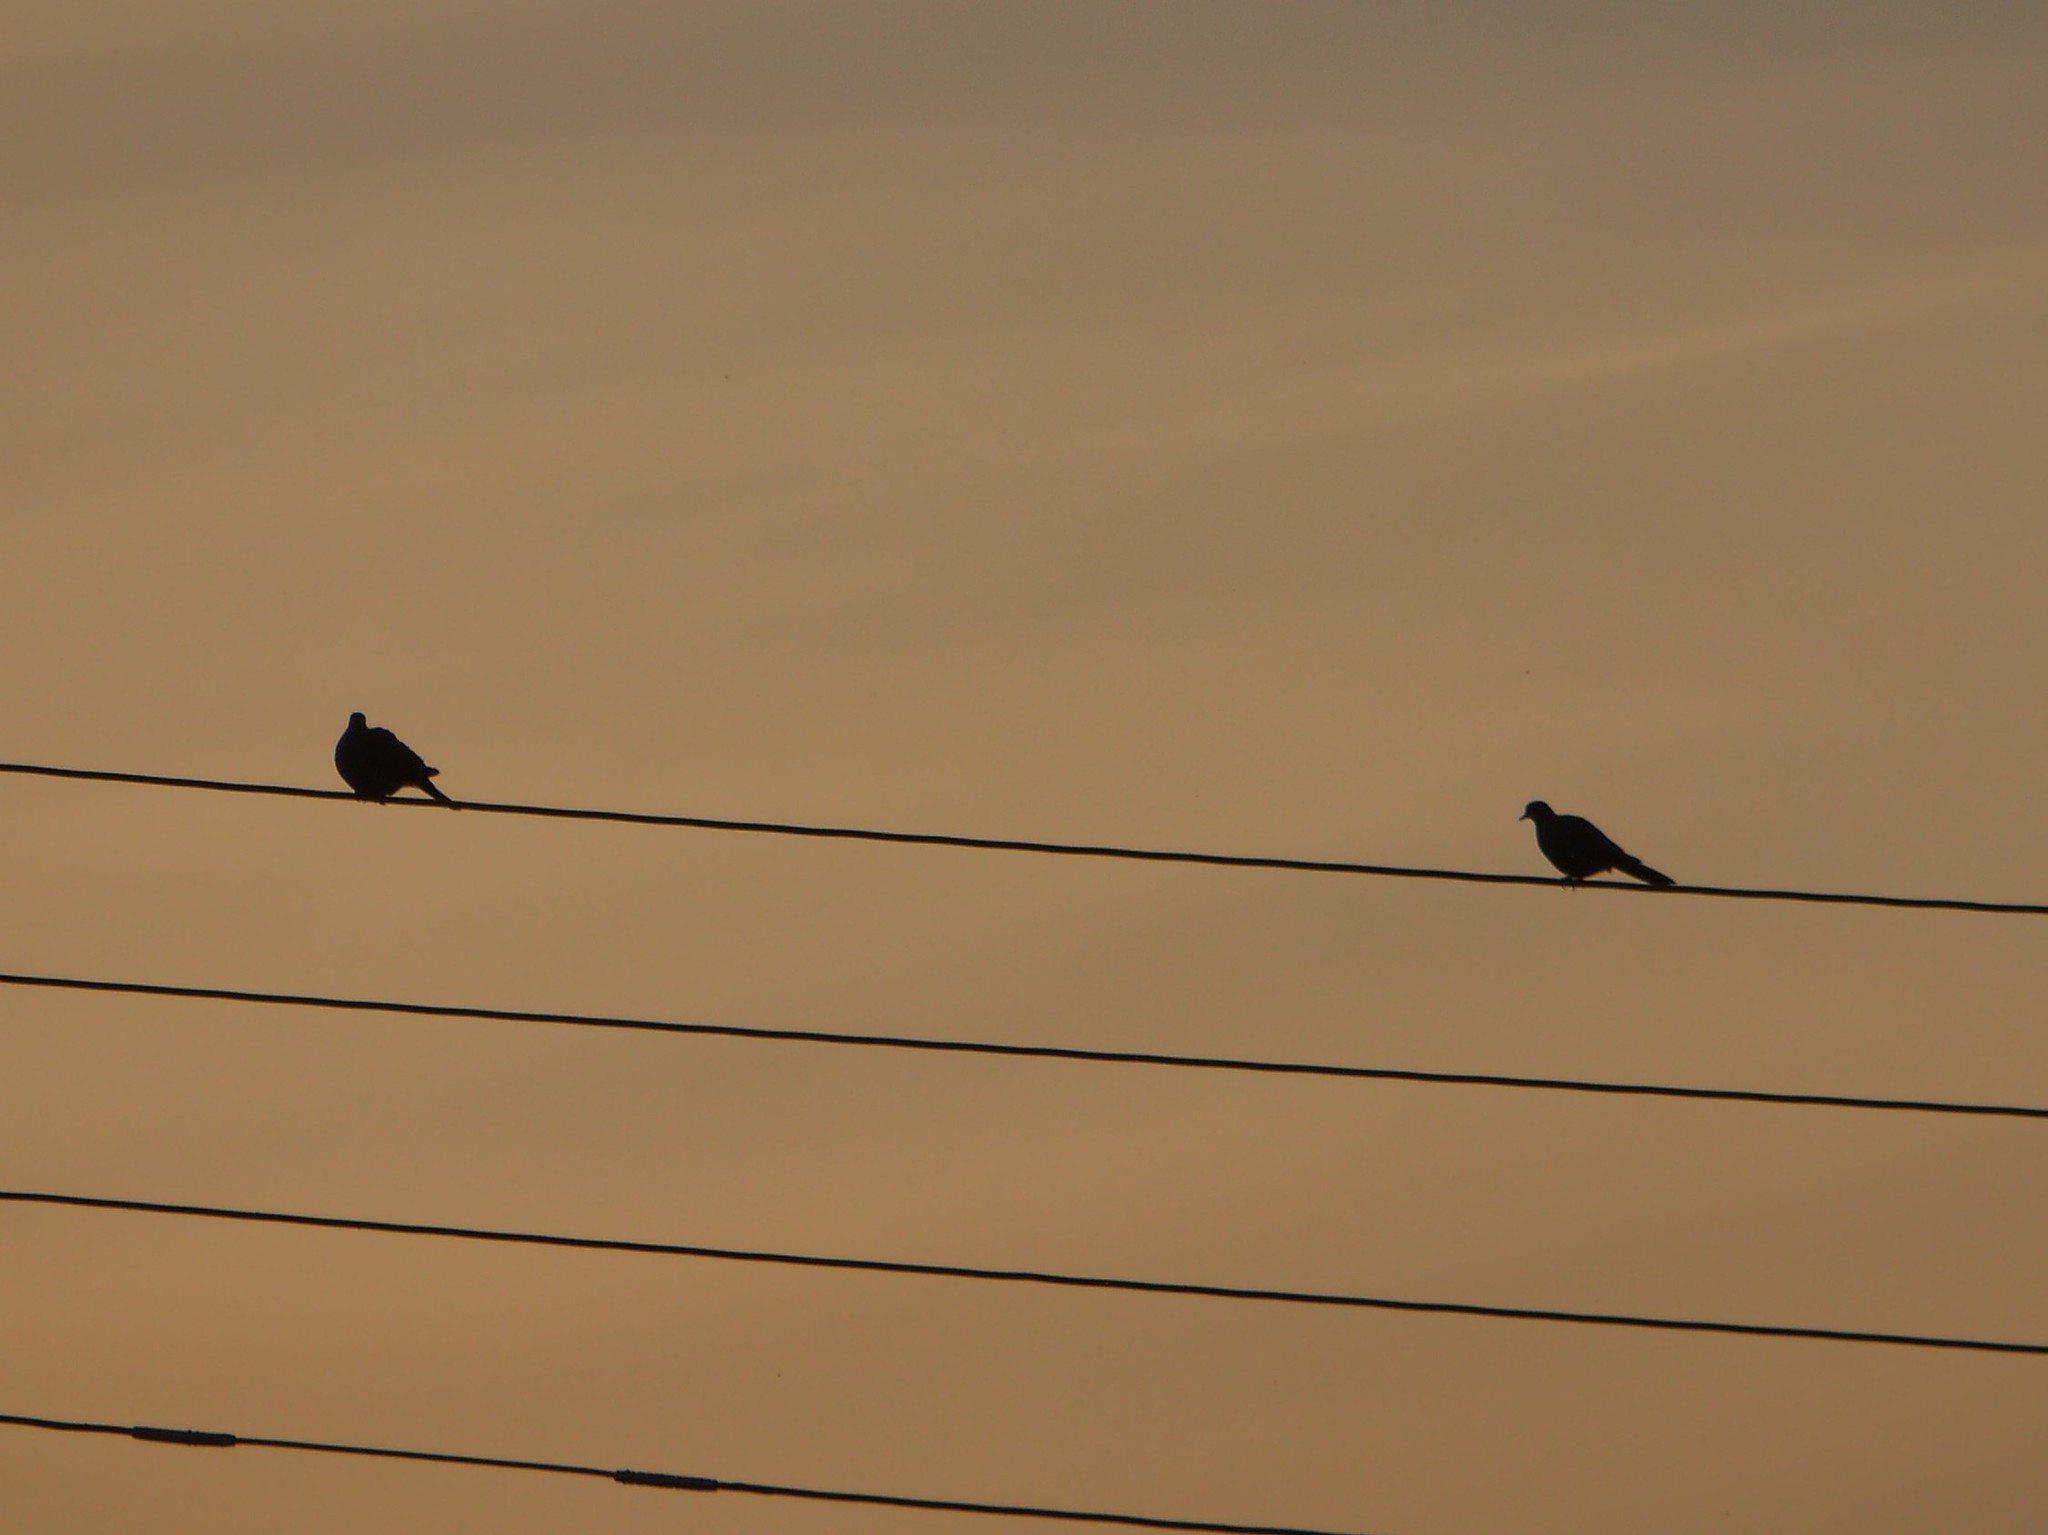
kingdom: Animalia
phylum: Chordata
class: Aves
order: Columbiformes
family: Columbidae
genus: Streptopelia
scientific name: Streptopelia decaocto
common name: Eurasian collared dove
